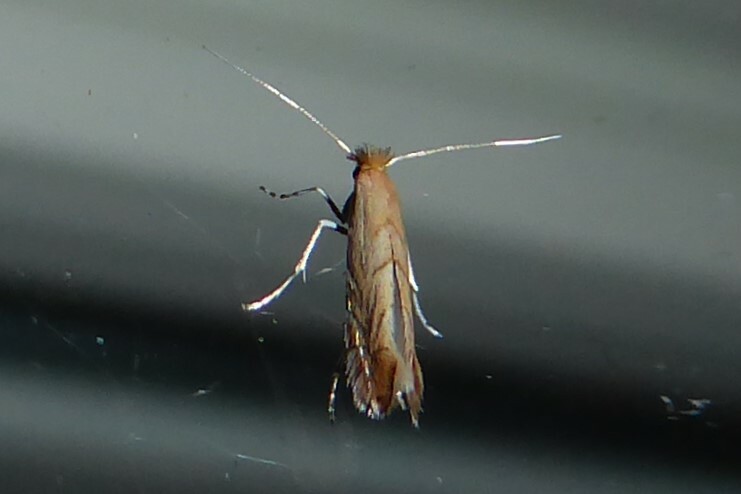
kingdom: Animalia
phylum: Arthropoda
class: Insecta
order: Lepidoptera
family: Gracillariidae
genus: Phyllonorycter
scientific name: Phyllonorycter messaniella
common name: Garden midget
